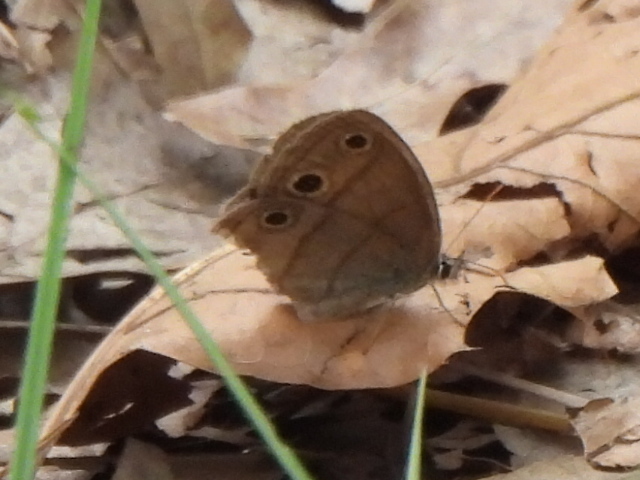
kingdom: Animalia
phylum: Arthropoda
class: Insecta
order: Lepidoptera
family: Nymphalidae
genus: Euptychia
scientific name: Euptychia cymela
